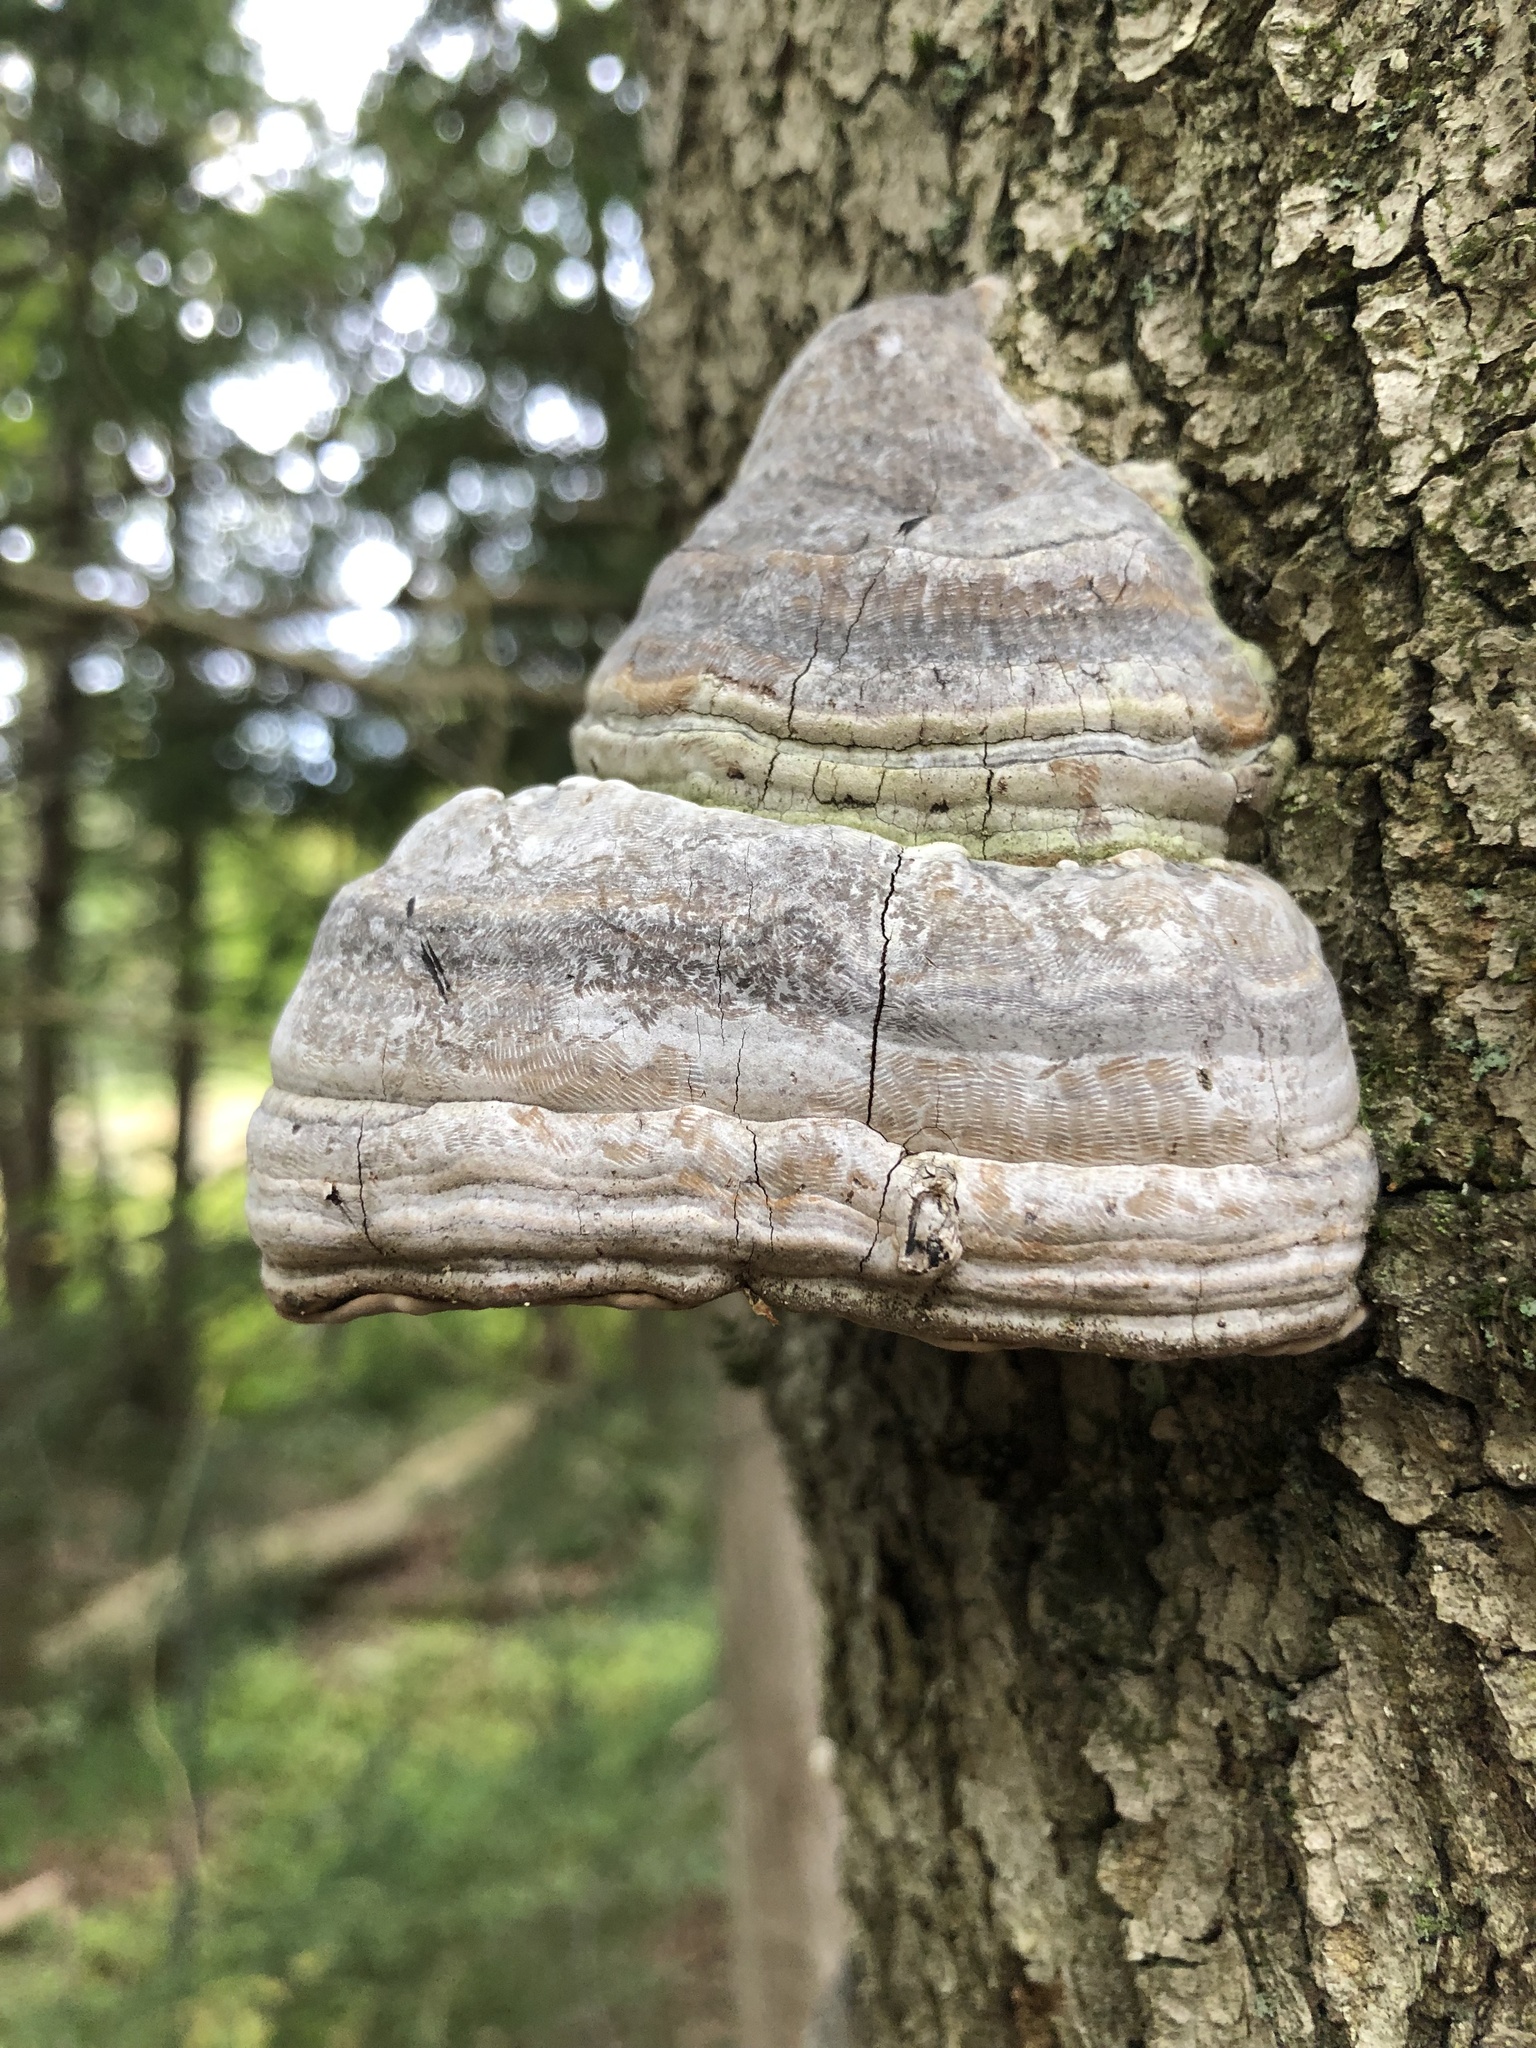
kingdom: Fungi
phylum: Basidiomycota
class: Agaricomycetes
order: Polyporales
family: Polyporaceae
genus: Fomes
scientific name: Fomes fomentarius
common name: Hoof fungus
